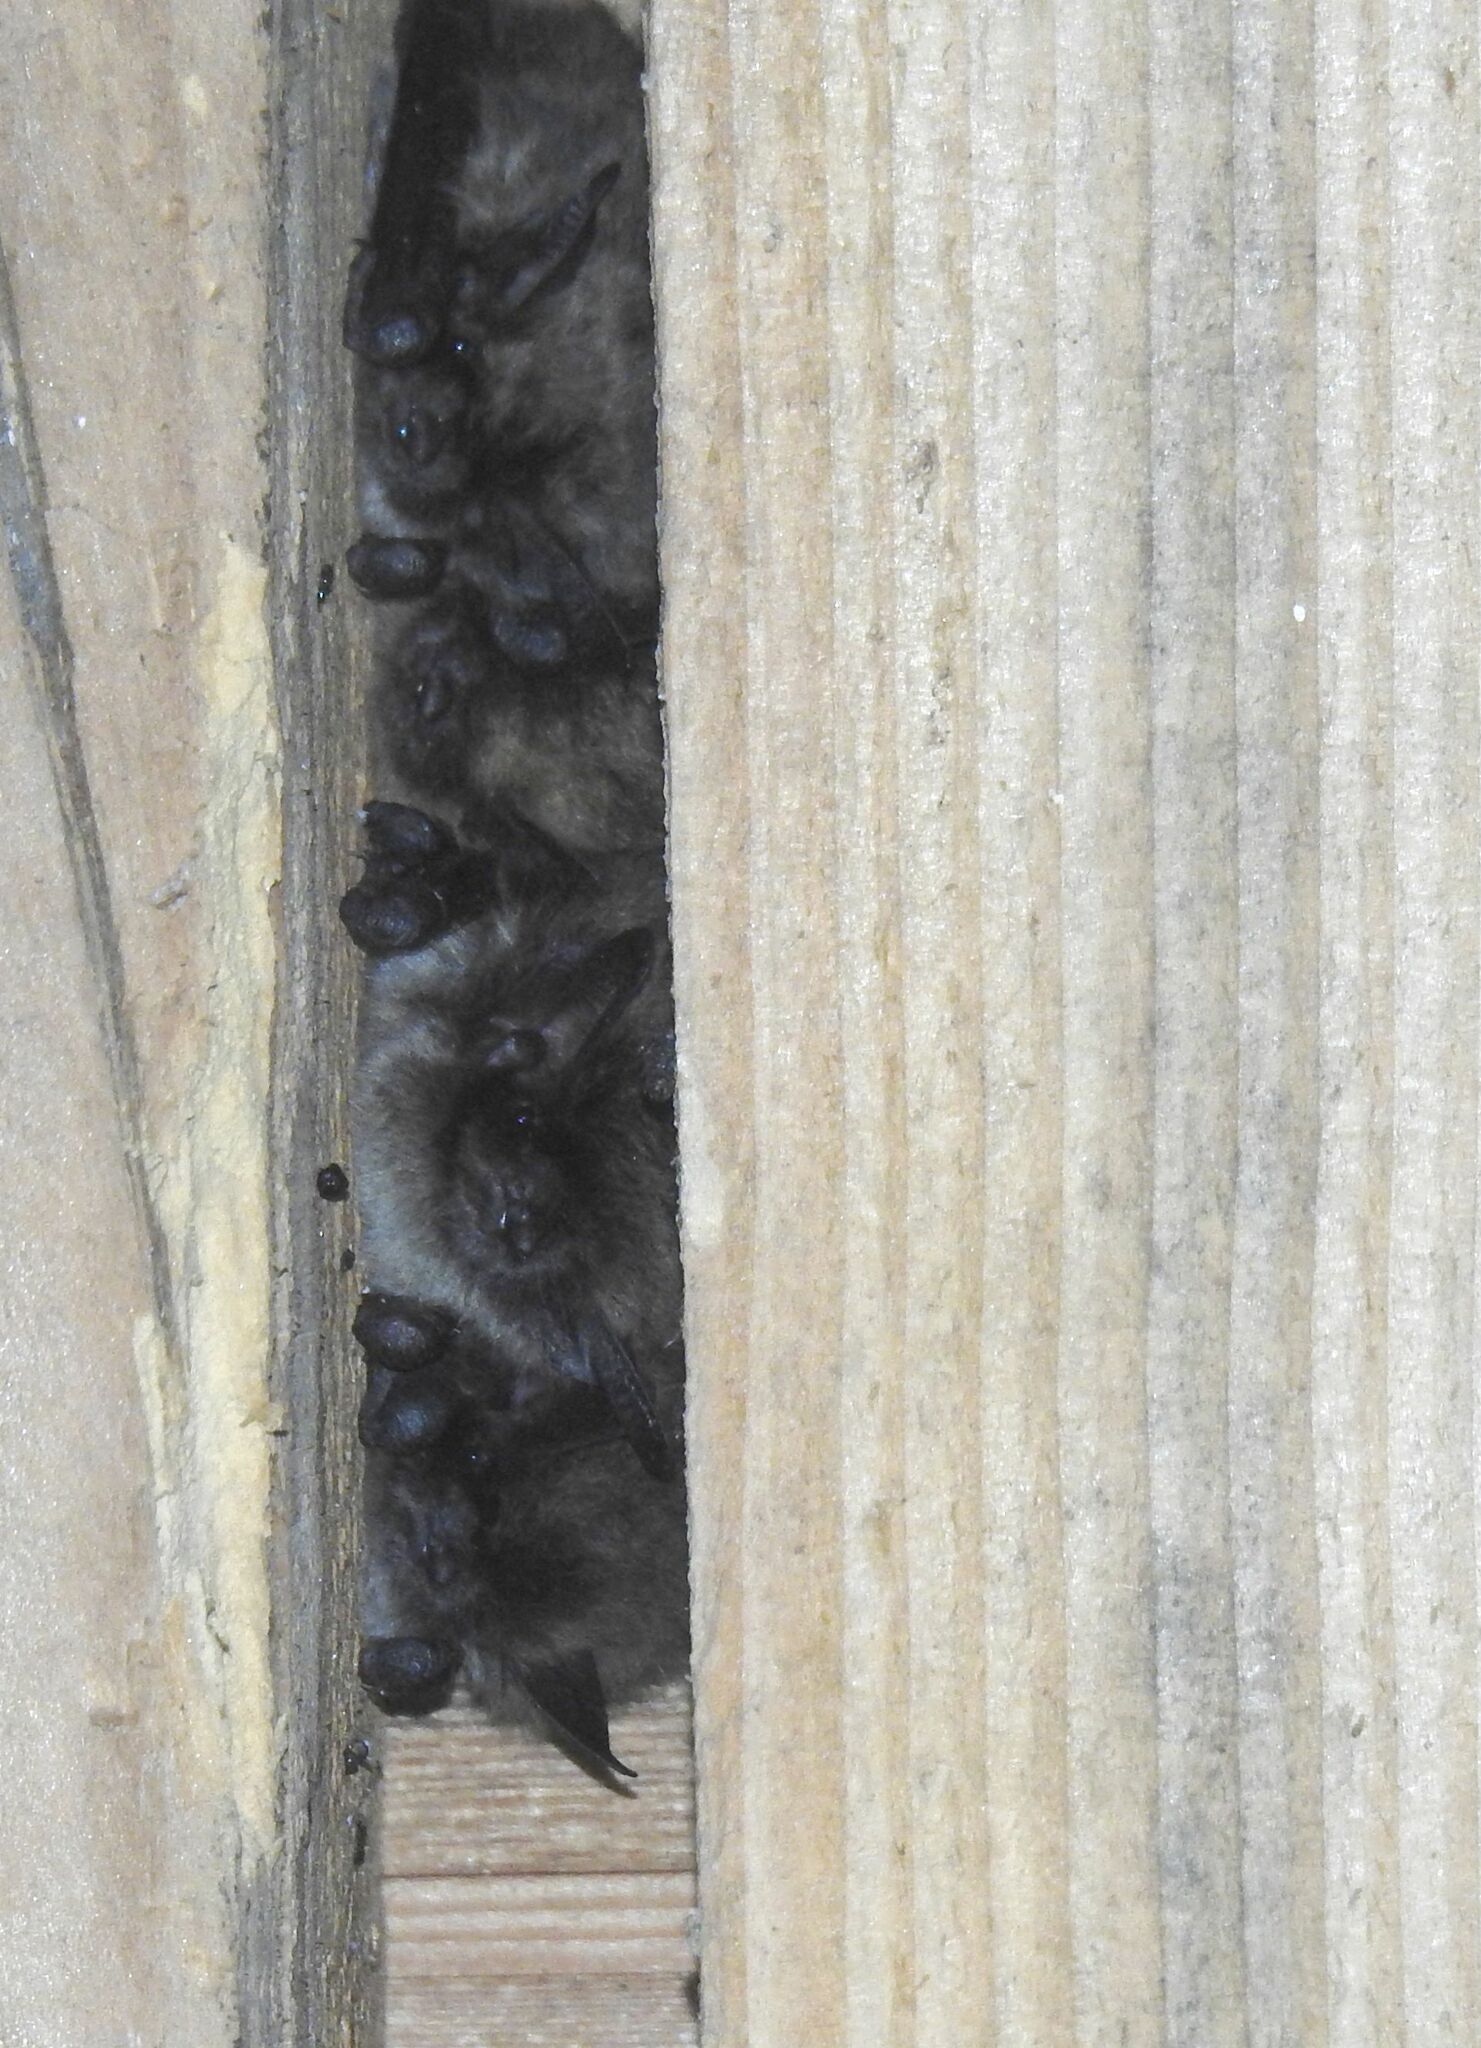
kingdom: Animalia
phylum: Chordata
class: Mammalia
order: Chiroptera
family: Vespertilionidae
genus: Myotis
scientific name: Myotis mystacinus
